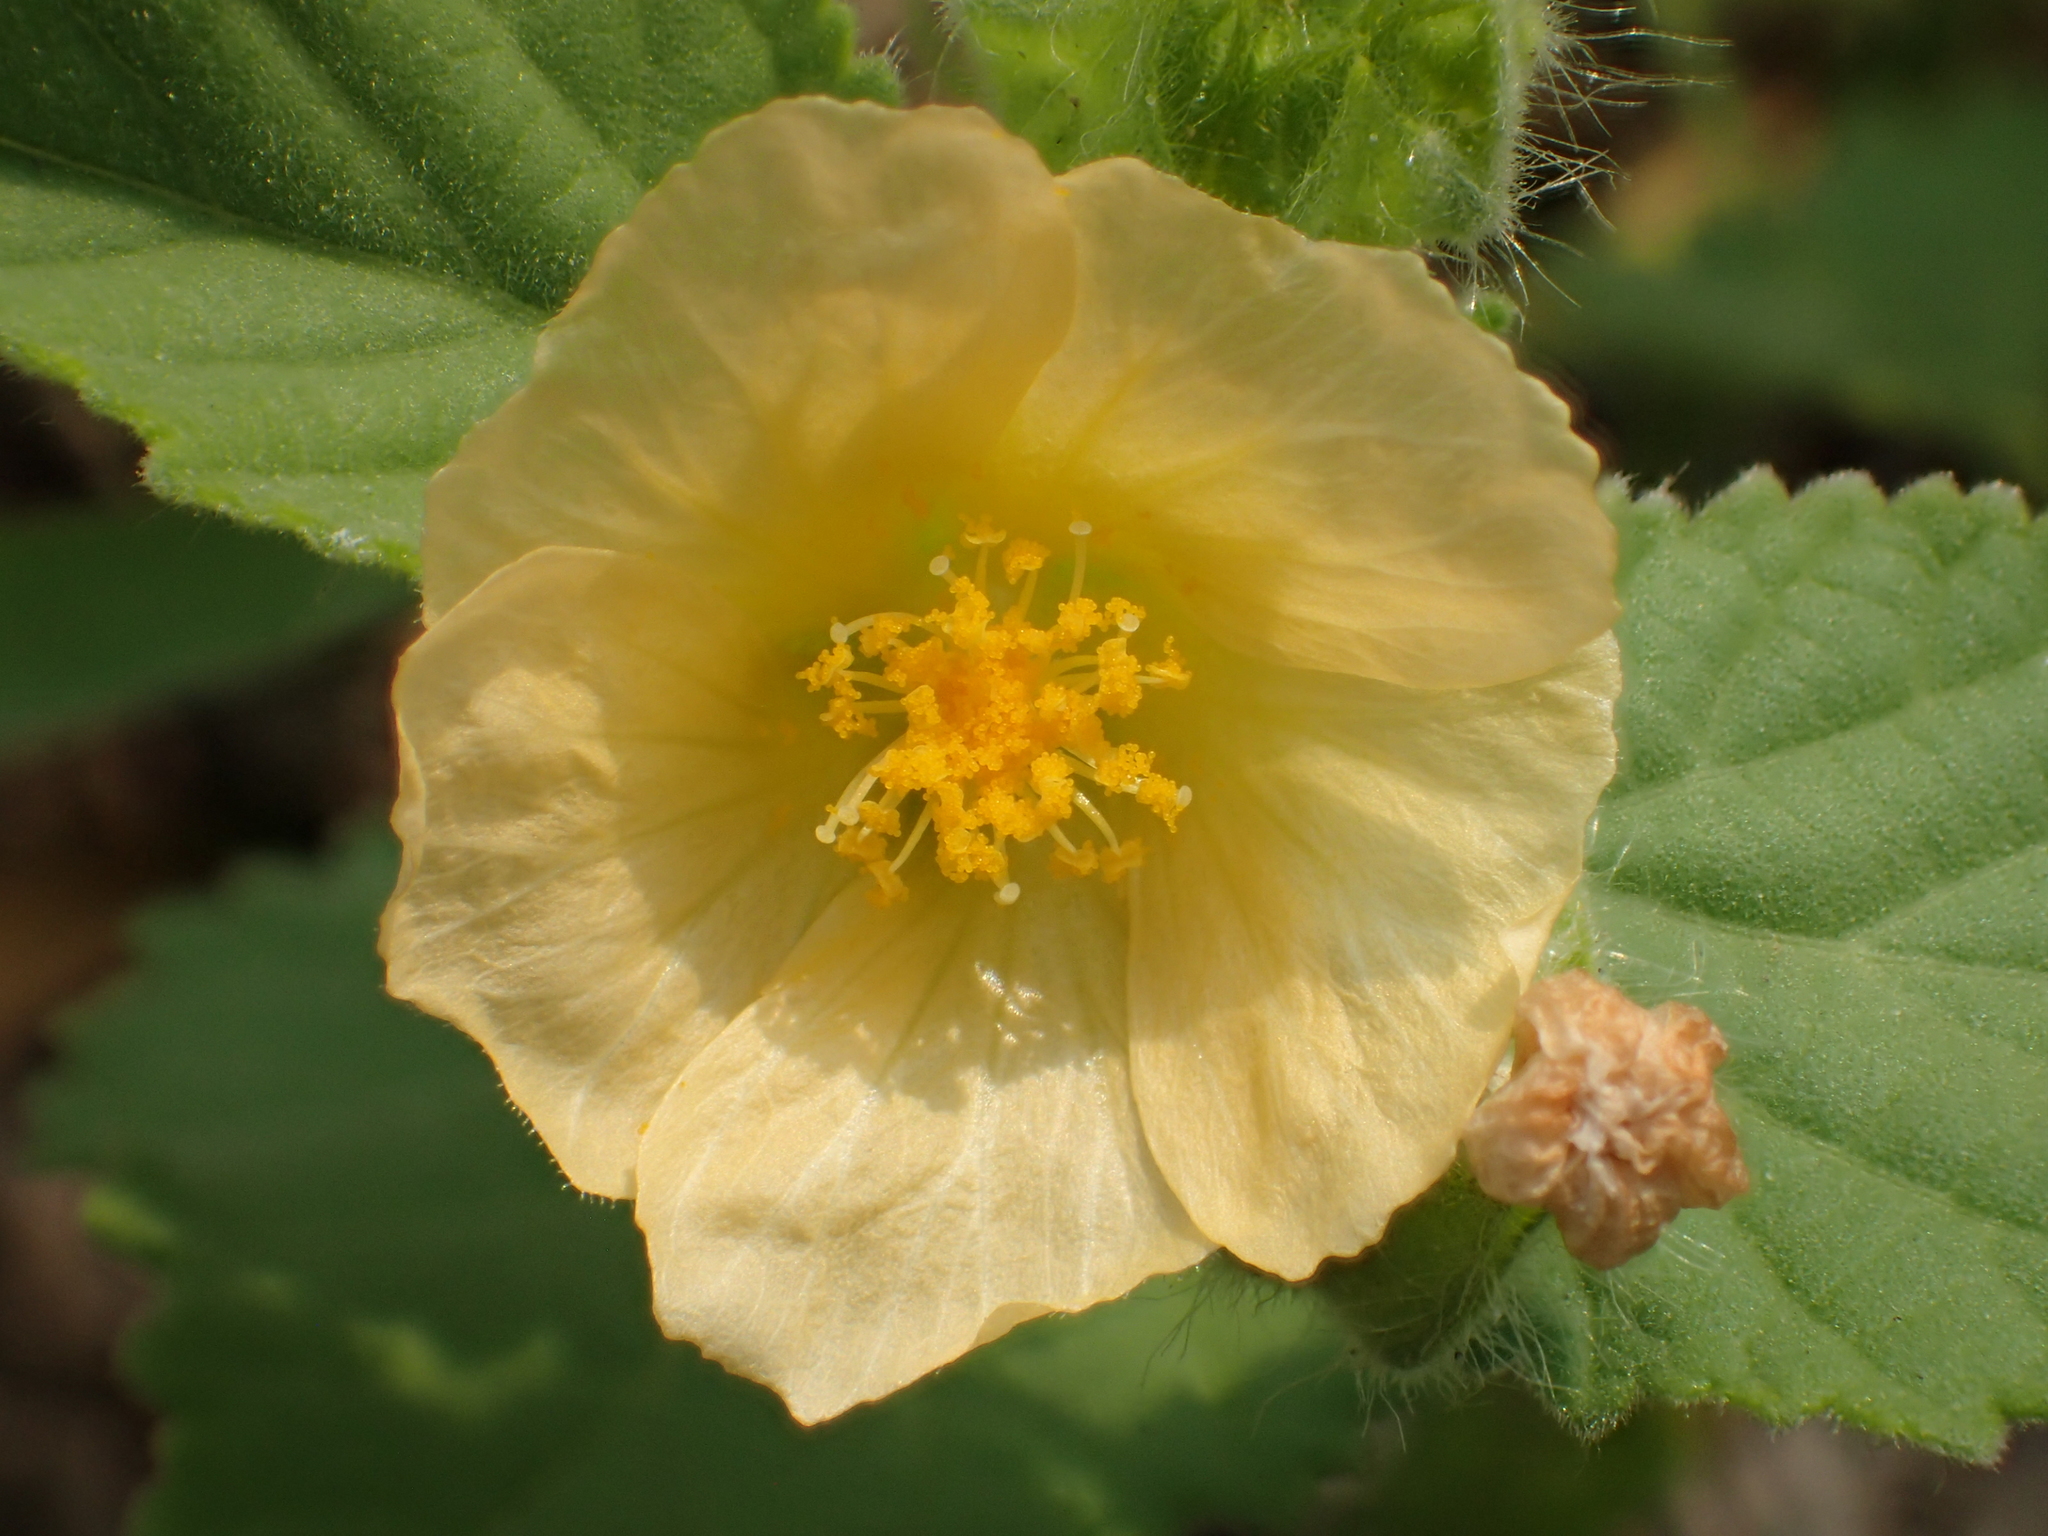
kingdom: Plantae
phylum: Tracheophyta
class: Magnoliopsida
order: Malvales
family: Malvaceae
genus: Sida
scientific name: Sida cordifolia
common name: Ilima
